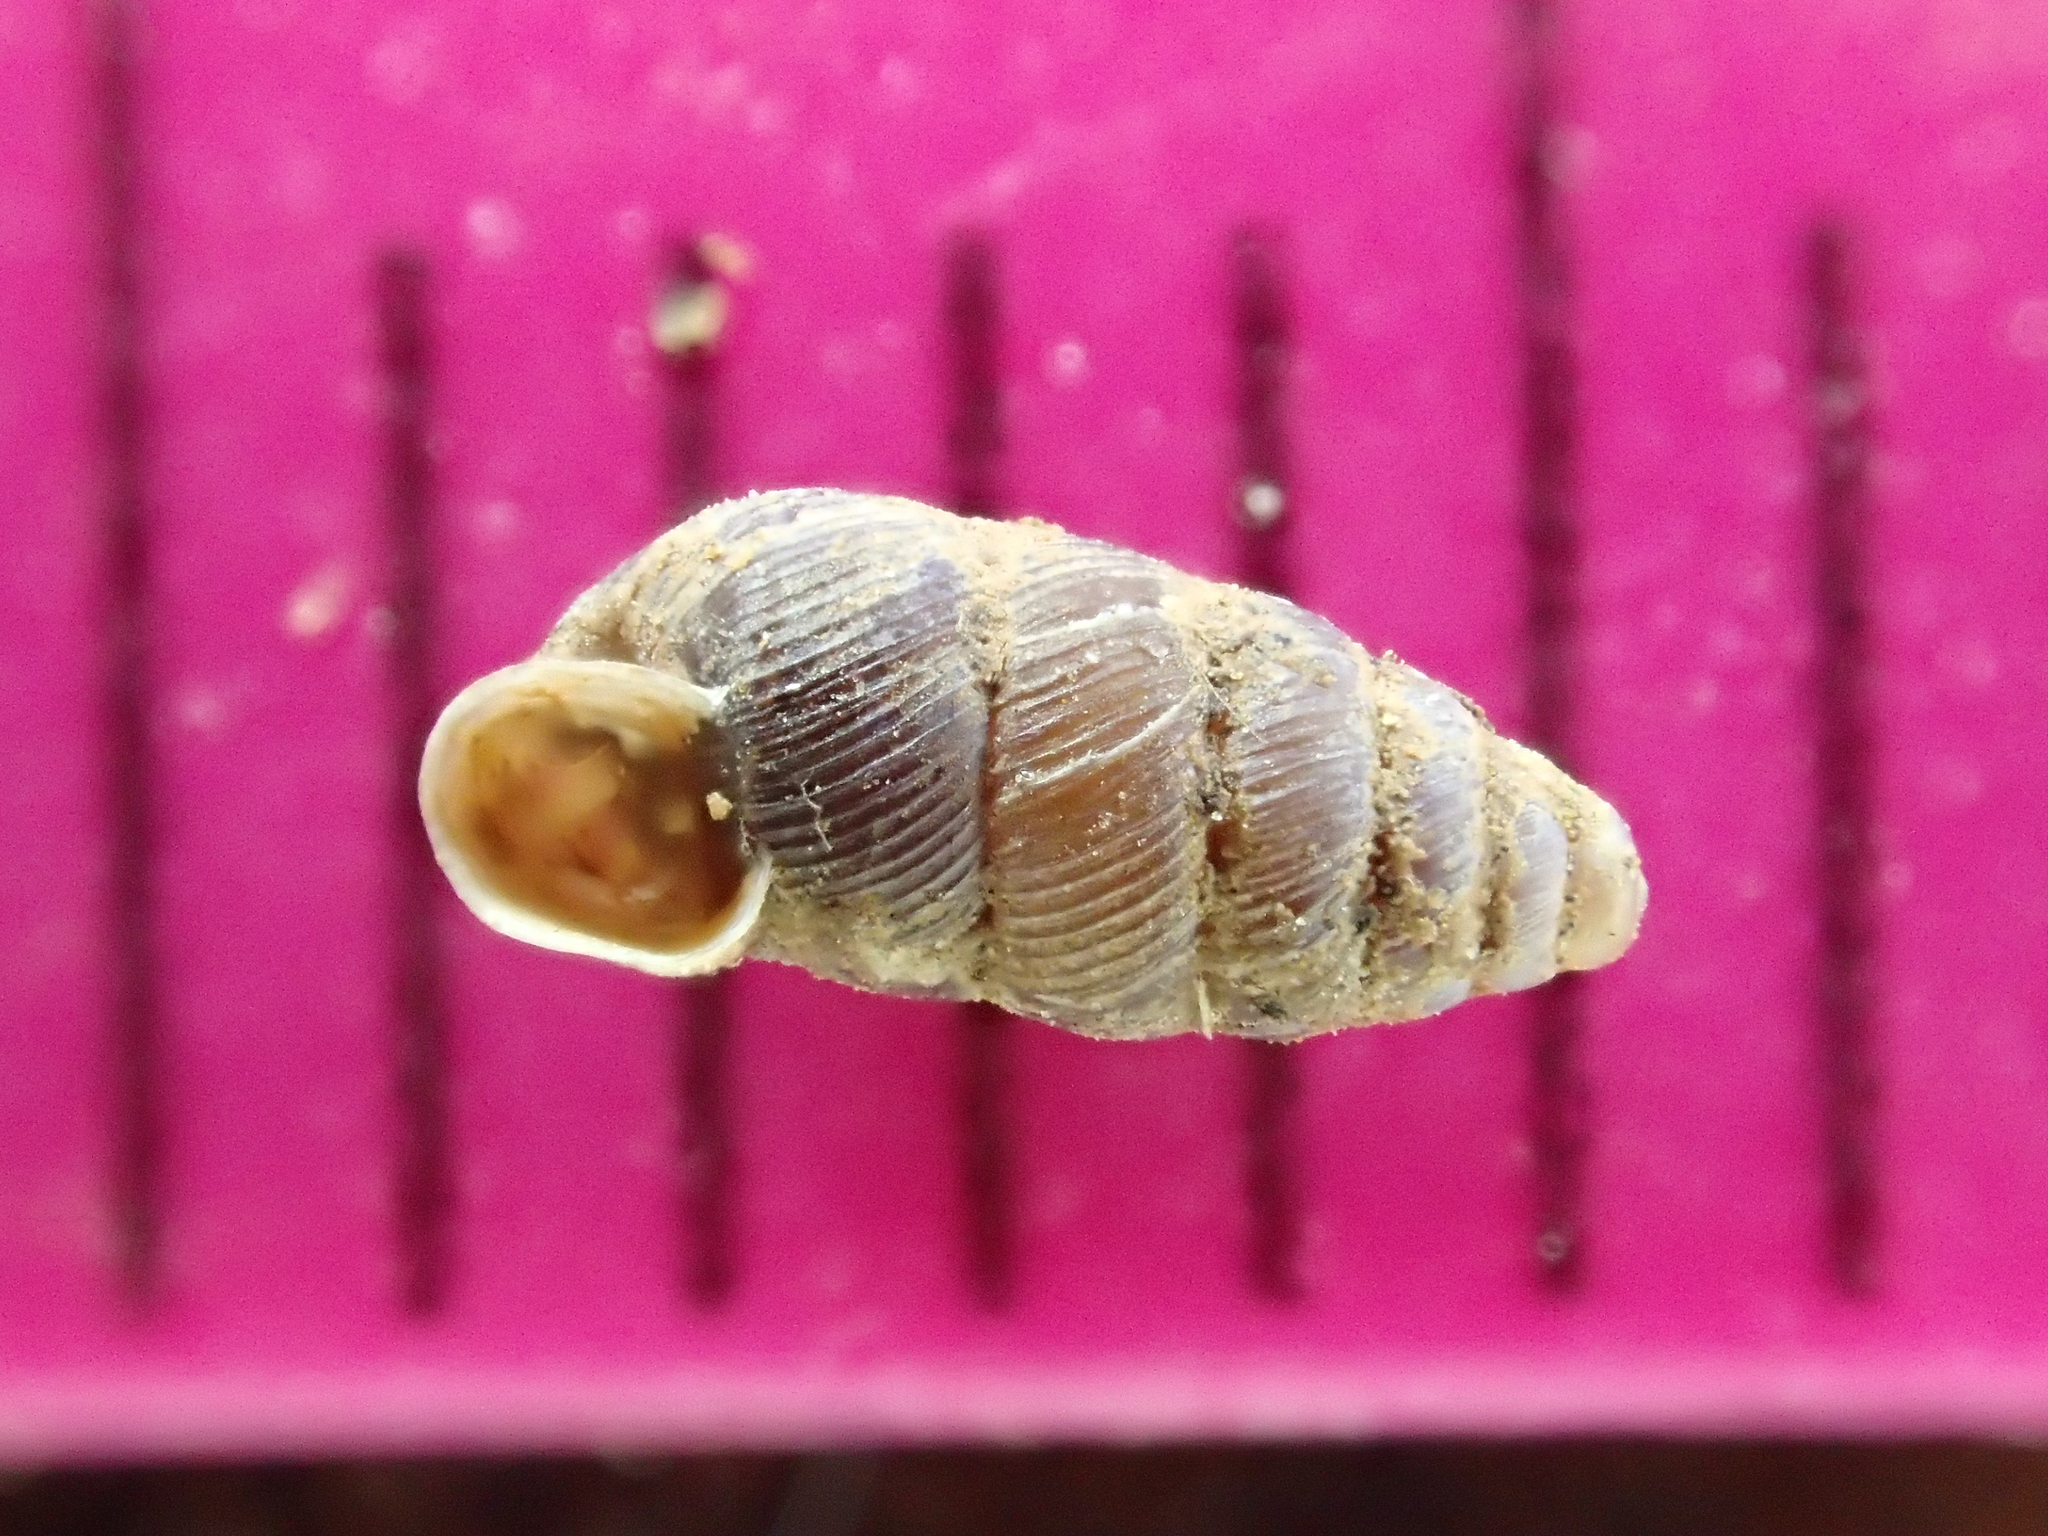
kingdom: Animalia
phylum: Mollusca
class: Gastropoda
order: Stylommatophora
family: Chondrinidae
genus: Granopupa
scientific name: Granopupa granum
